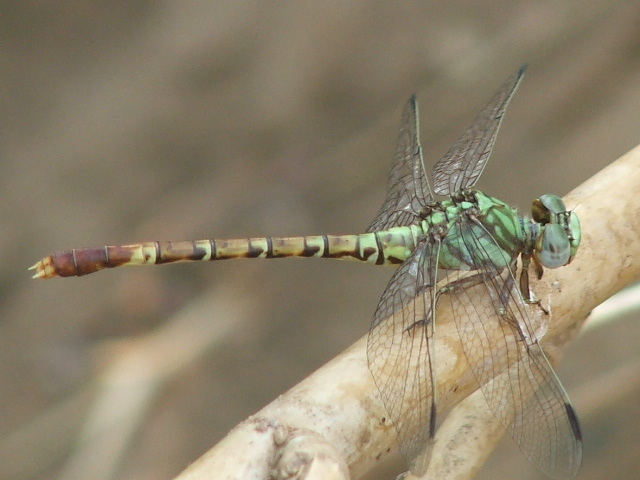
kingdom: Animalia
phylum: Arthropoda
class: Insecta
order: Odonata
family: Gomphidae
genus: Paragomphus
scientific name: Paragomphus elpidius
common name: Corkscrew hooktail
